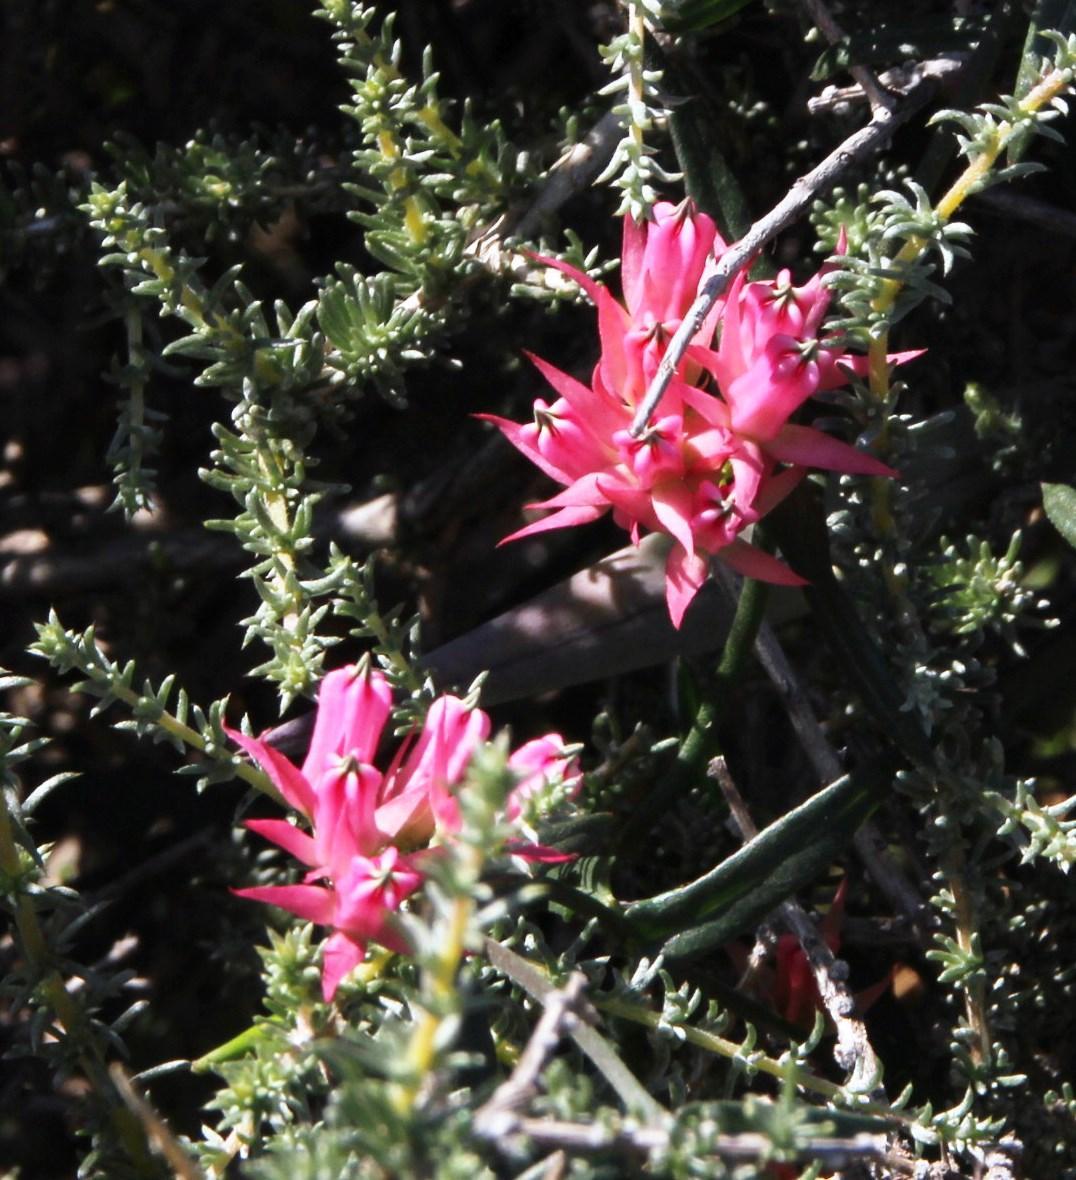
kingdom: Plantae
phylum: Tracheophyta
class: Magnoliopsida
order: Gentianales
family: Apocynaceae
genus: Microloma
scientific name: Microloma sagittatum
